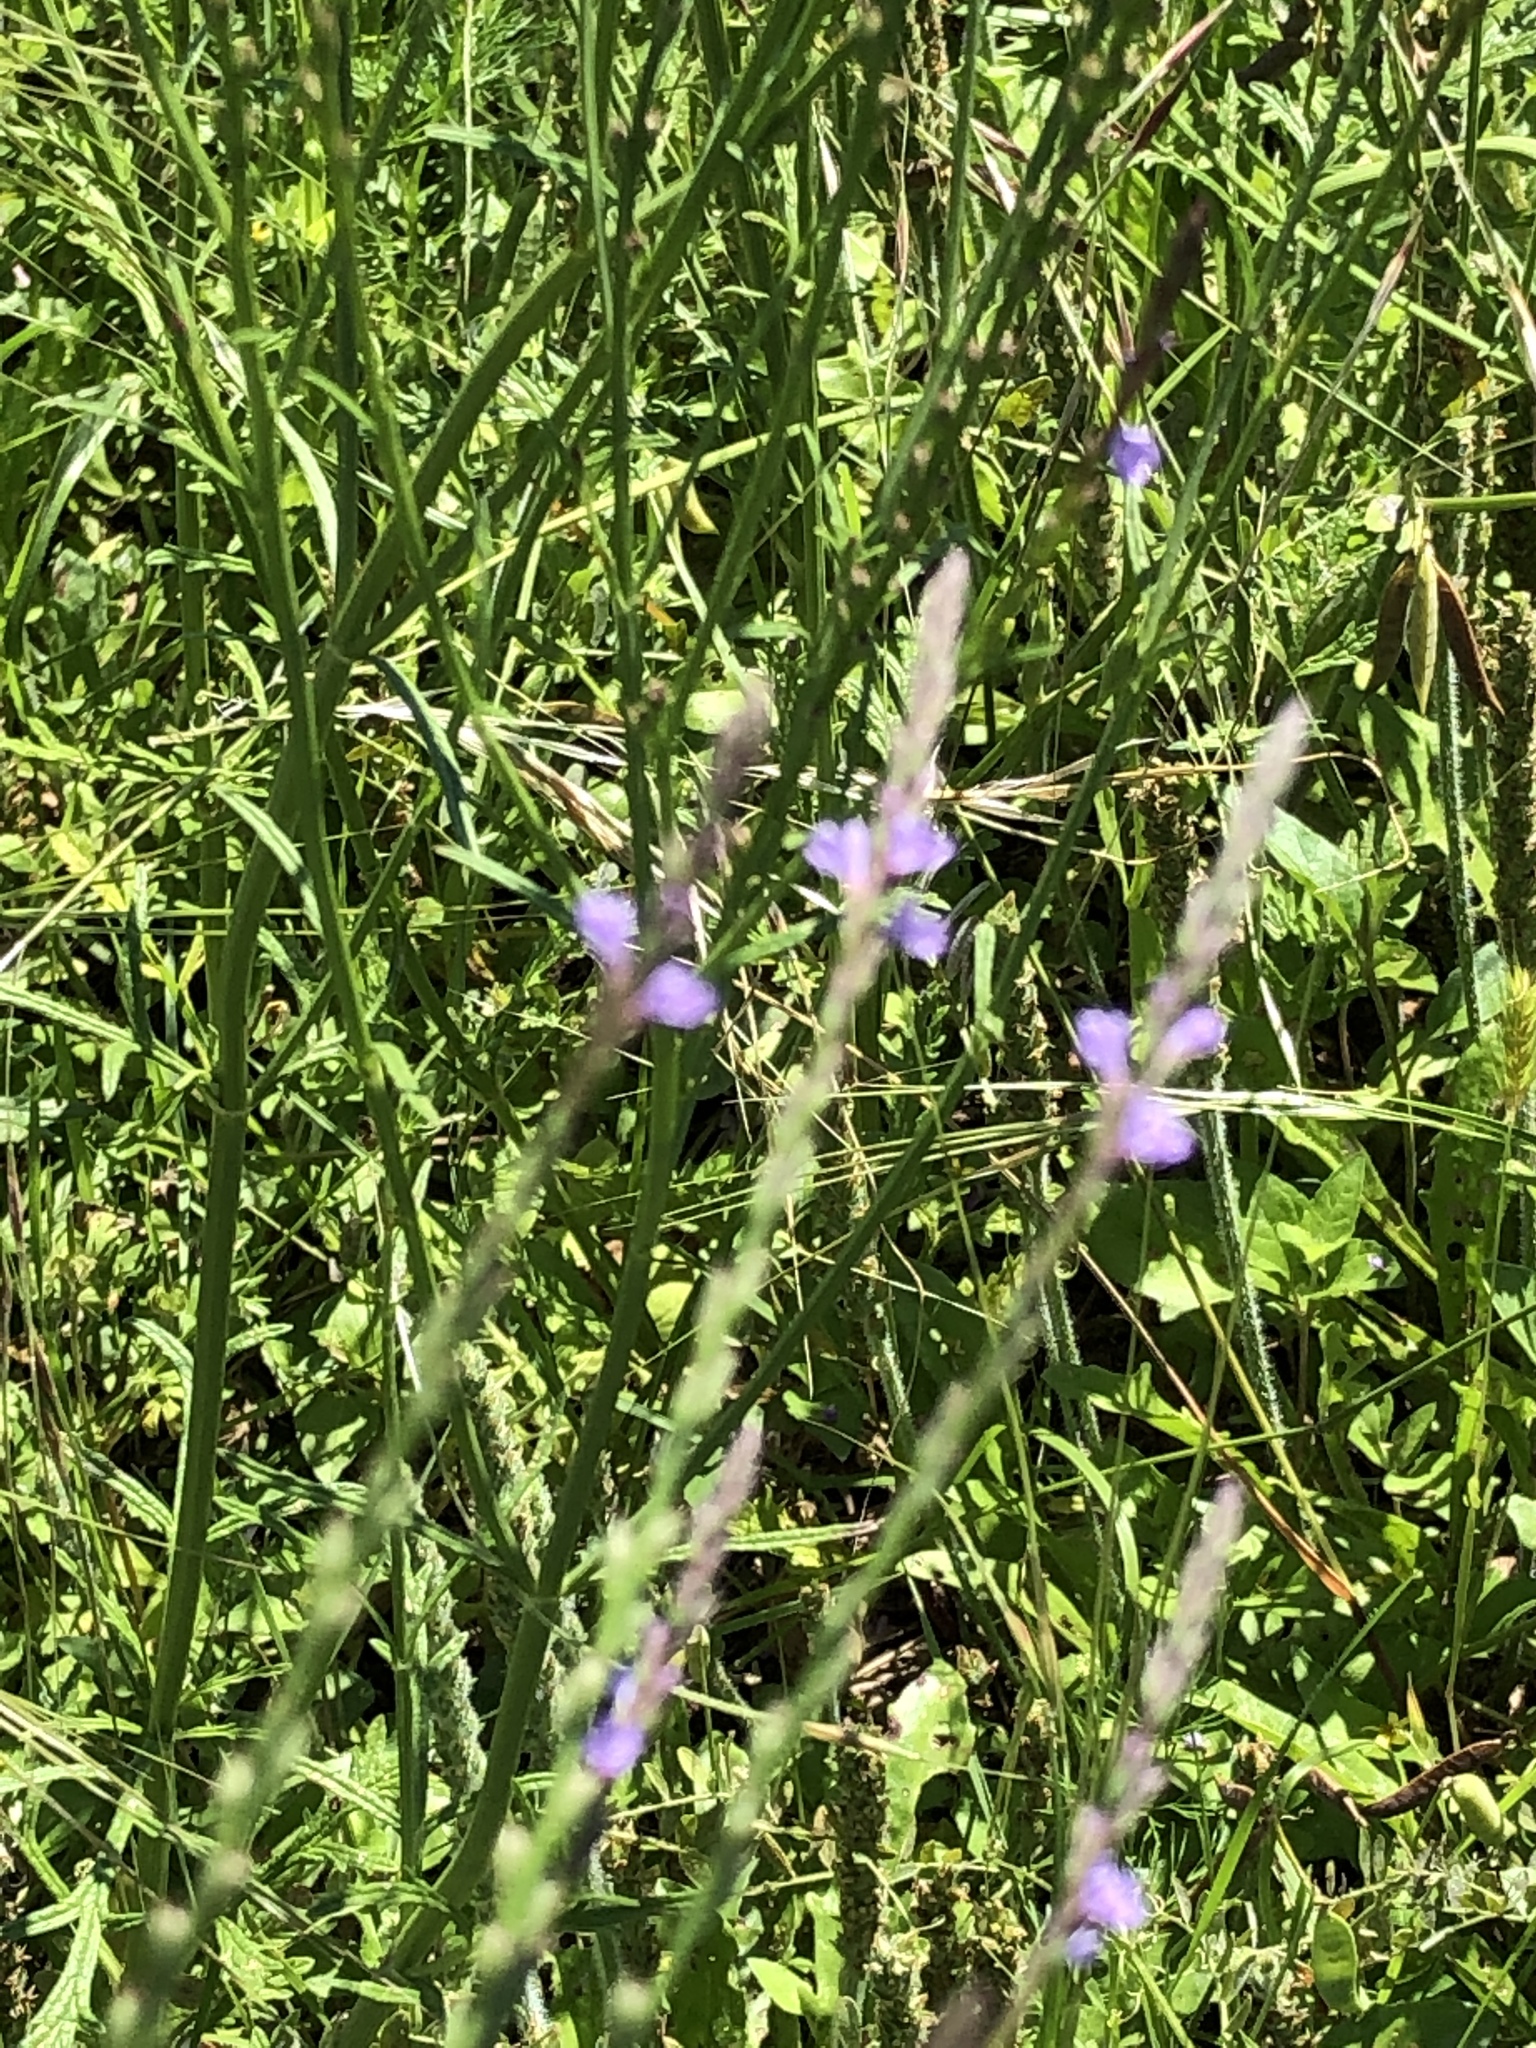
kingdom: Plantae
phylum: Tracheophyta
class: Magnoliopsida
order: Lamiales
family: Verbenaceae
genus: Verbena
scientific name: Verbena halei
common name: Texas vervain
